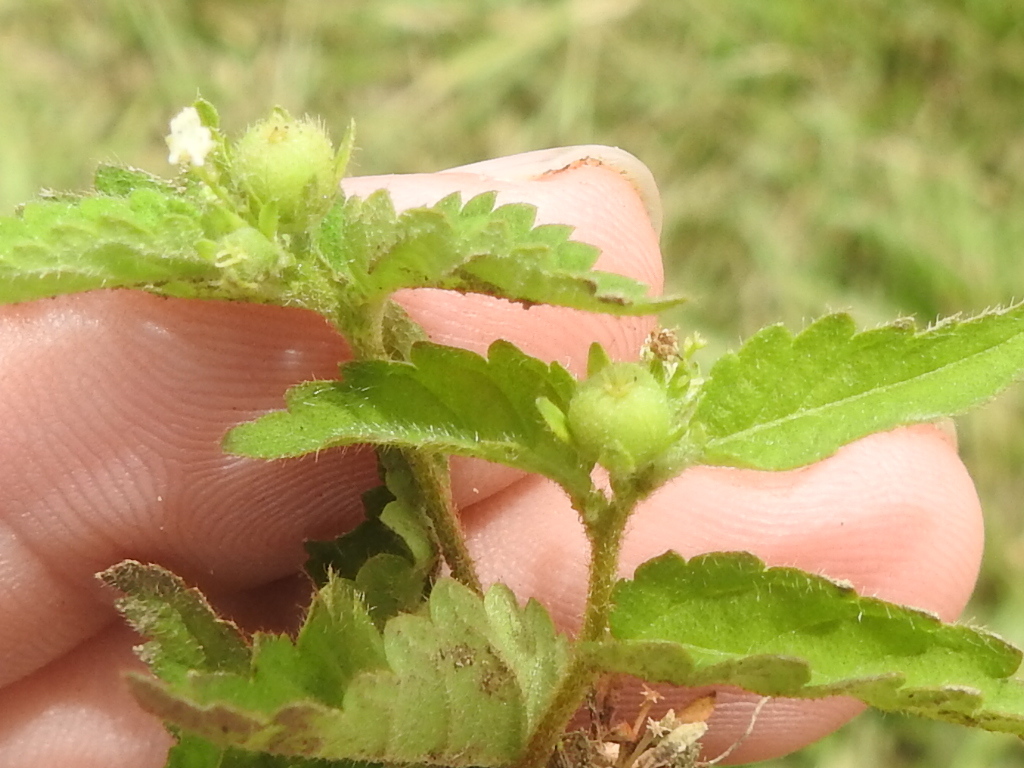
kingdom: Plantae
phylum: Tracheophyta
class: Magnoliopsida
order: Malpighiales
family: Euphorbiaceae
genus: Croton
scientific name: Croton trinitatis
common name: Roadside croton
